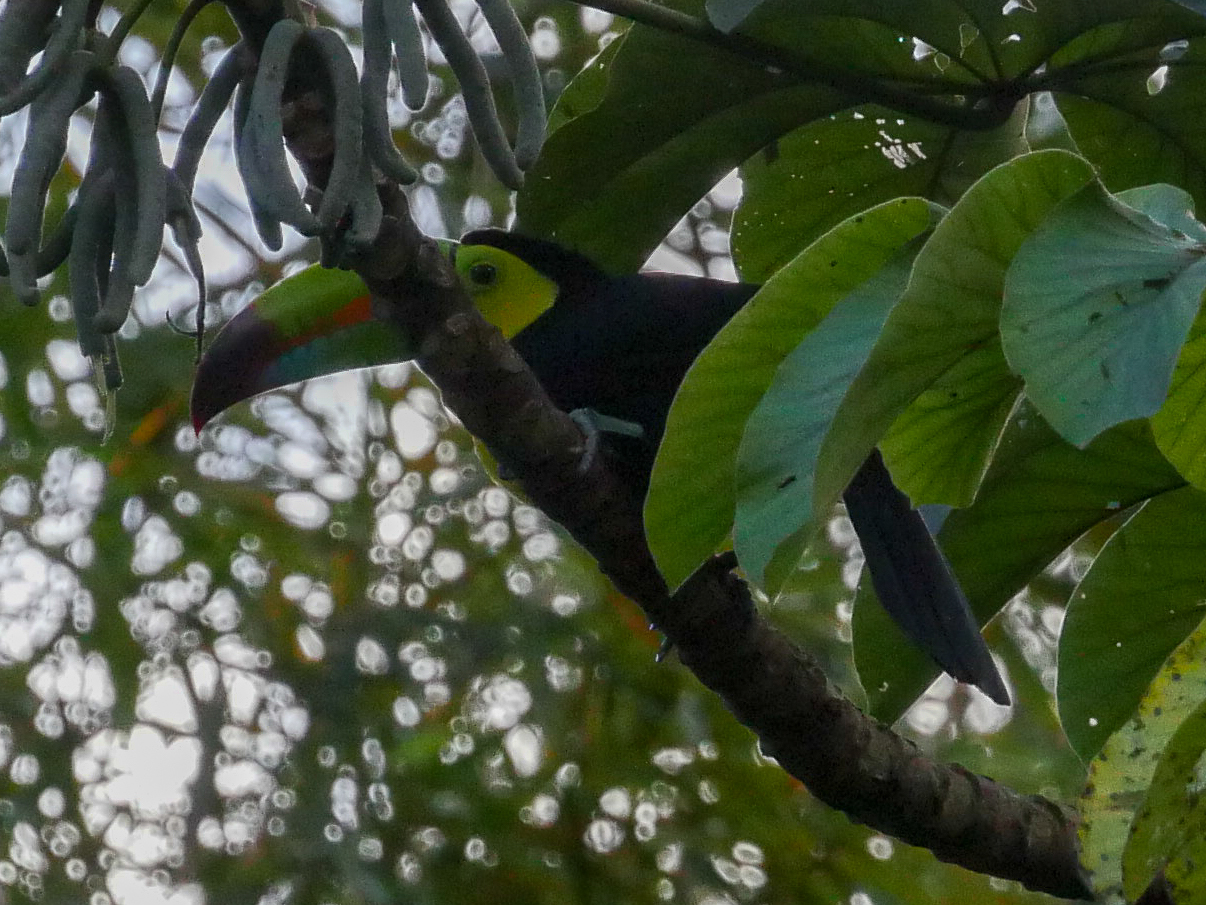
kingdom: Animalia
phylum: Chordata
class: Aves
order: Piciformes
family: Ramphastidae
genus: Ramphastos
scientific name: Ramphastos sulfuratus
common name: Keel-billed toucan
